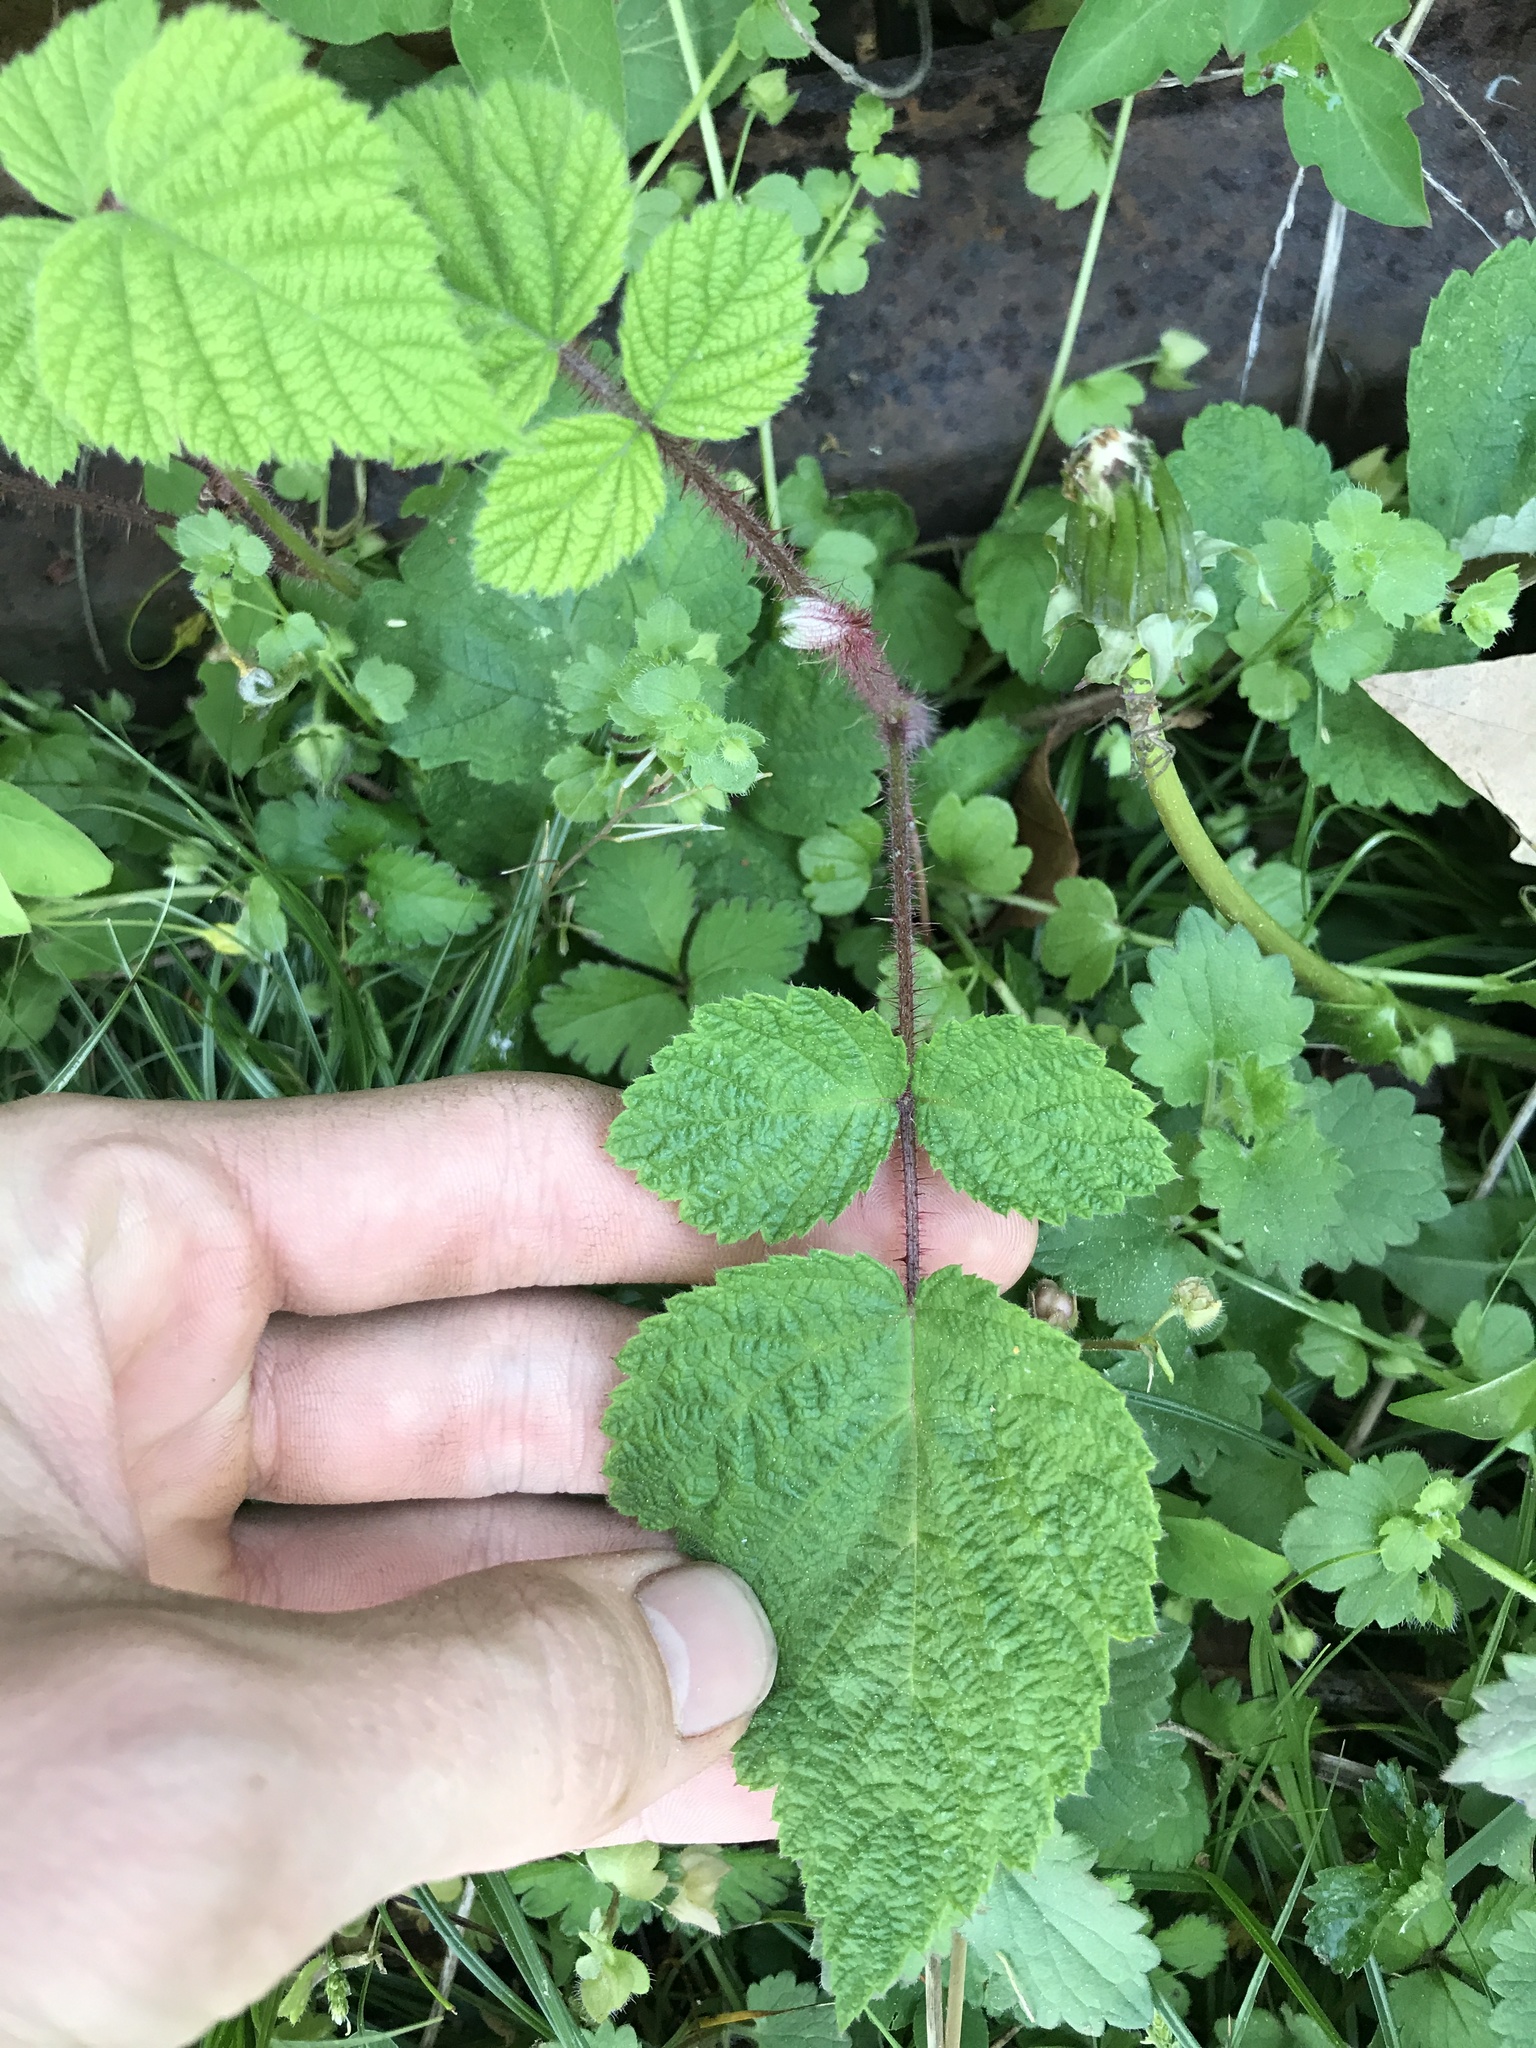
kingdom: Plantae
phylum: Tracheophyta
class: Magnoliopsida
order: Rosales
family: Rosaceae
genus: Rubus
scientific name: Rubus phoenicolasius
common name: Japanese wineberry
